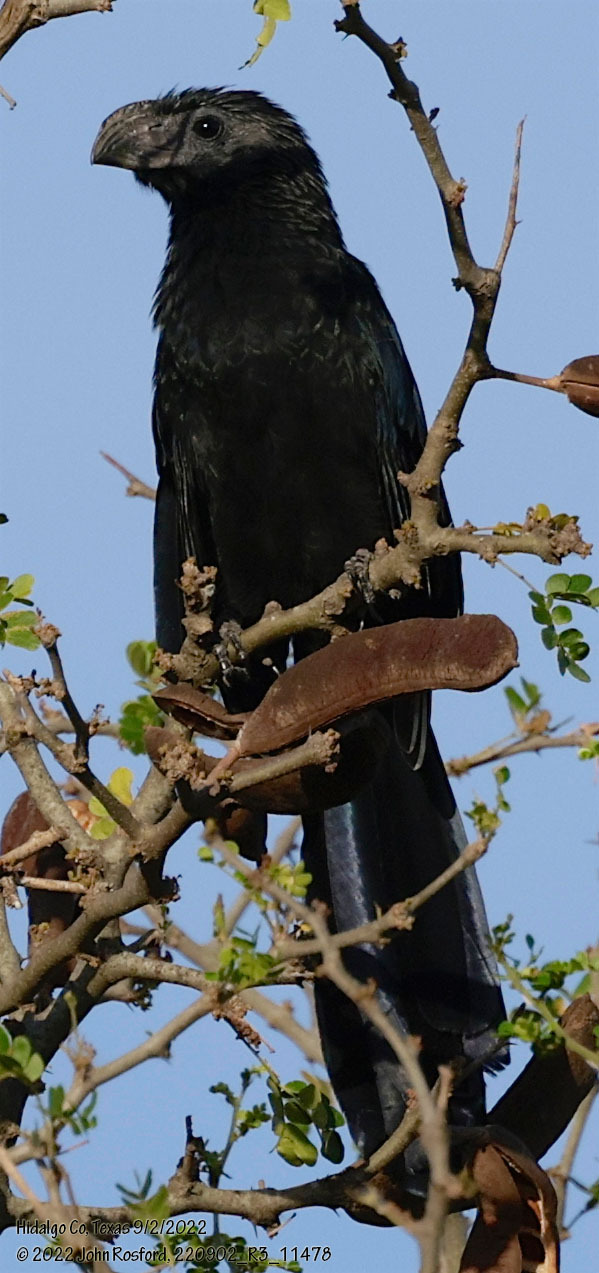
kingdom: Animalia
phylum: Chordata
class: Aves
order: Cuculiformes
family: Cuculidae
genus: Crotophaga
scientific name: Crotophaga sulcirostris
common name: Groove-billed ani
